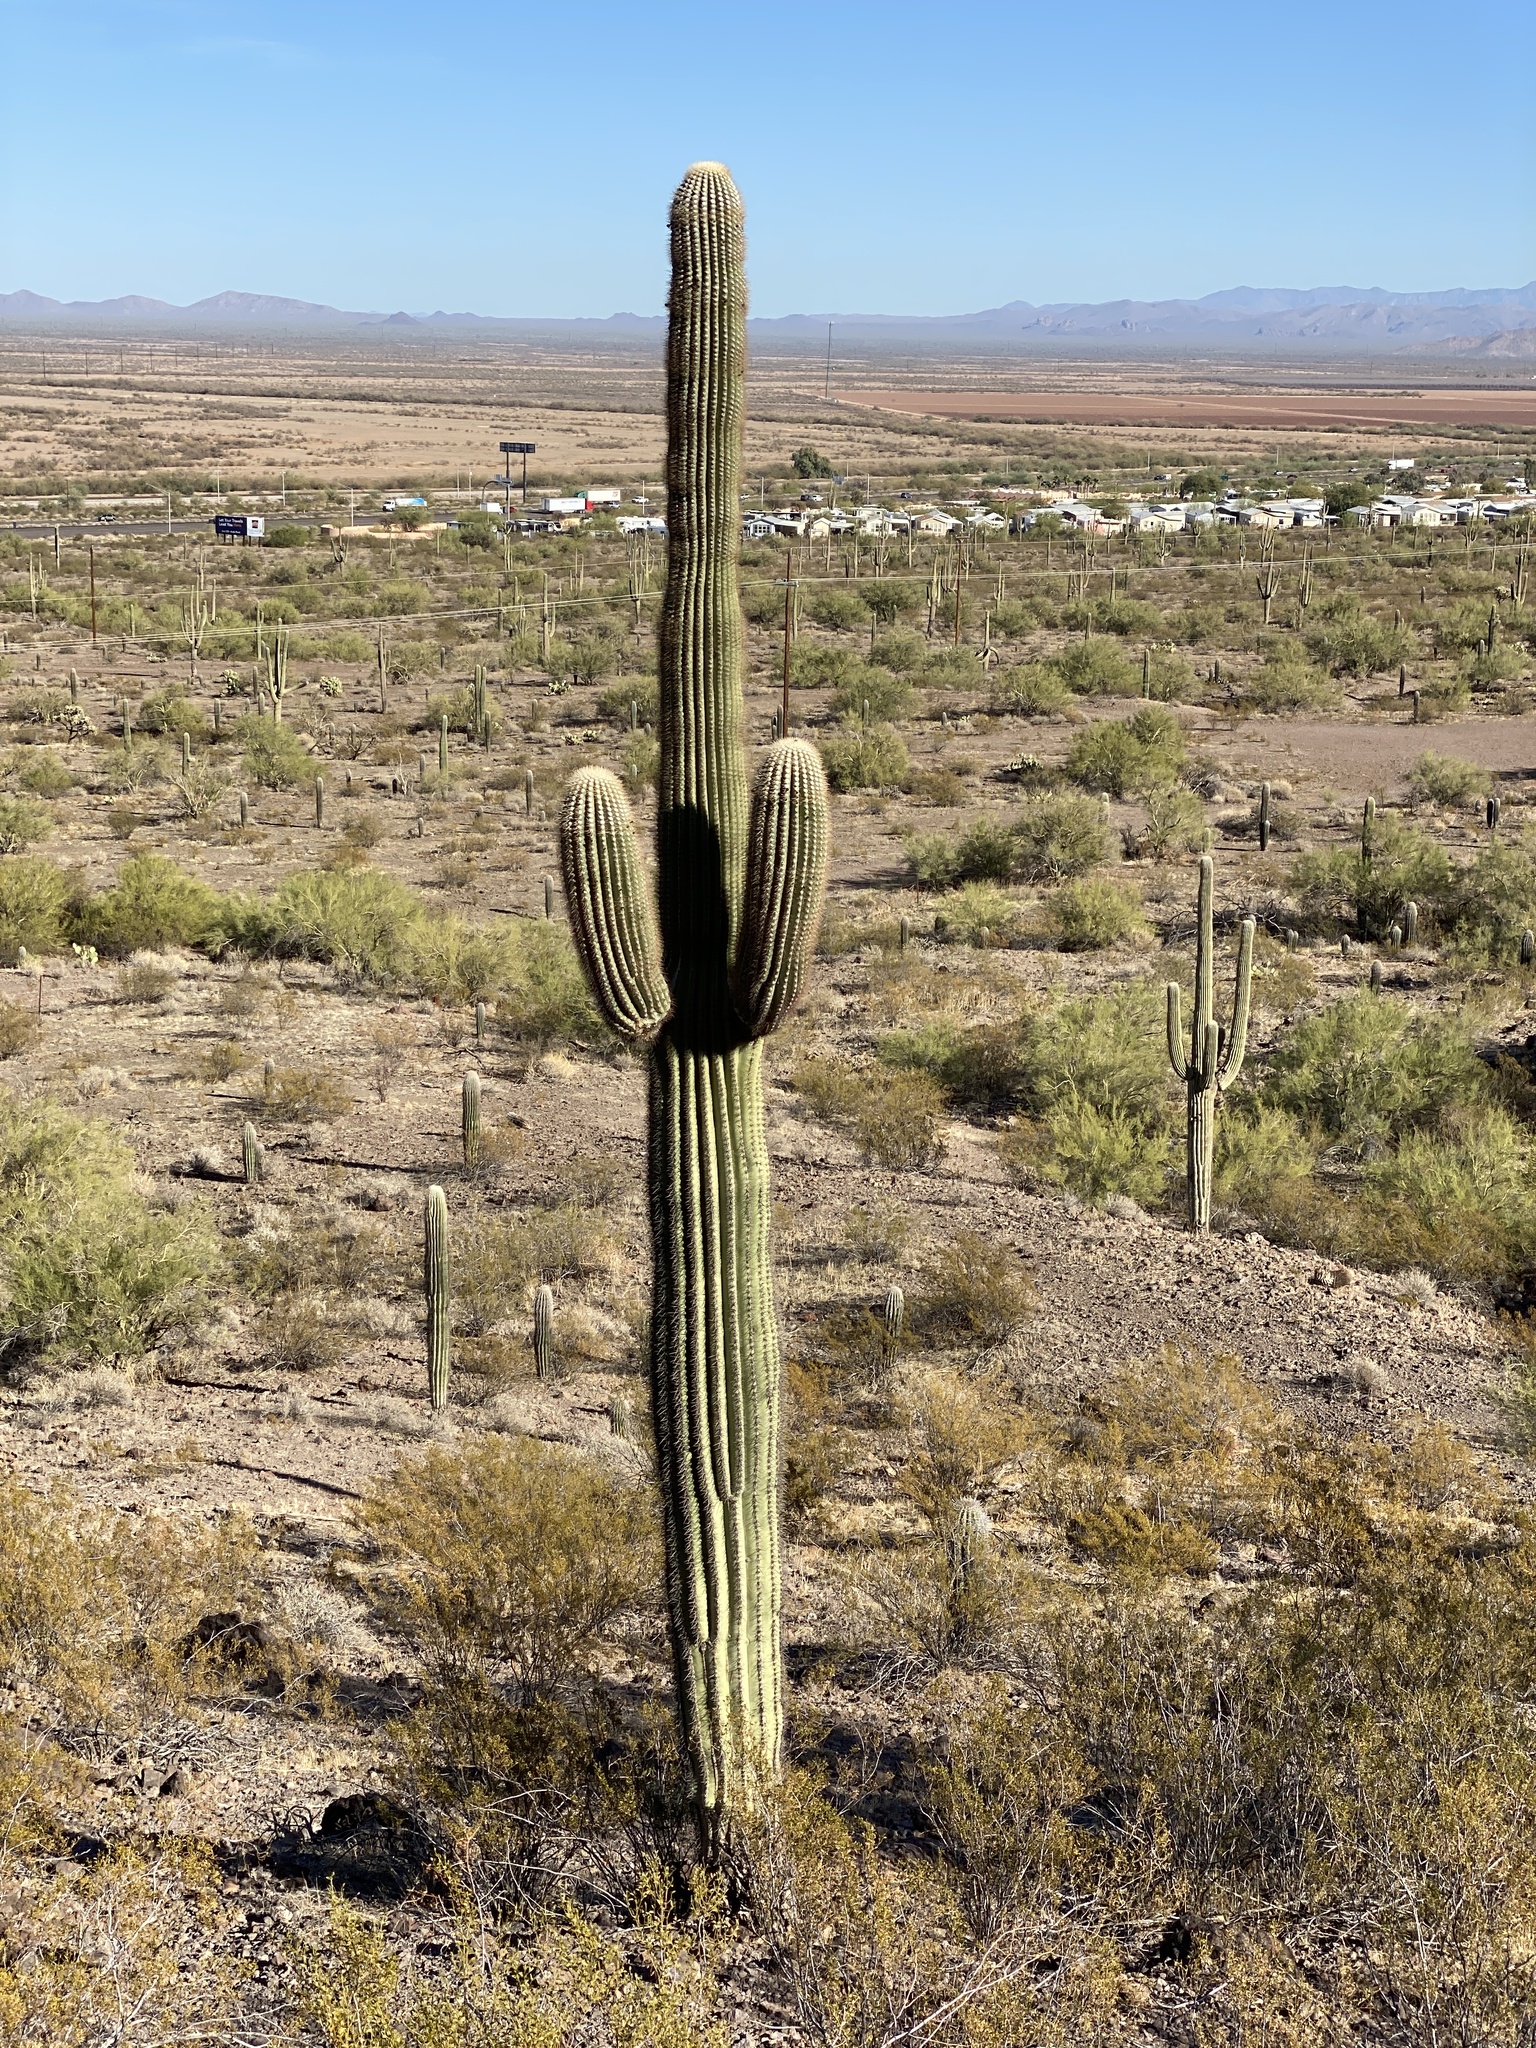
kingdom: Plantae
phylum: Tracheophyta
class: Magnoliopsida
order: Caryophyllales
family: Cactaceae
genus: Carnegiea
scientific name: Carnegiea gigantea
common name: Saguaro
